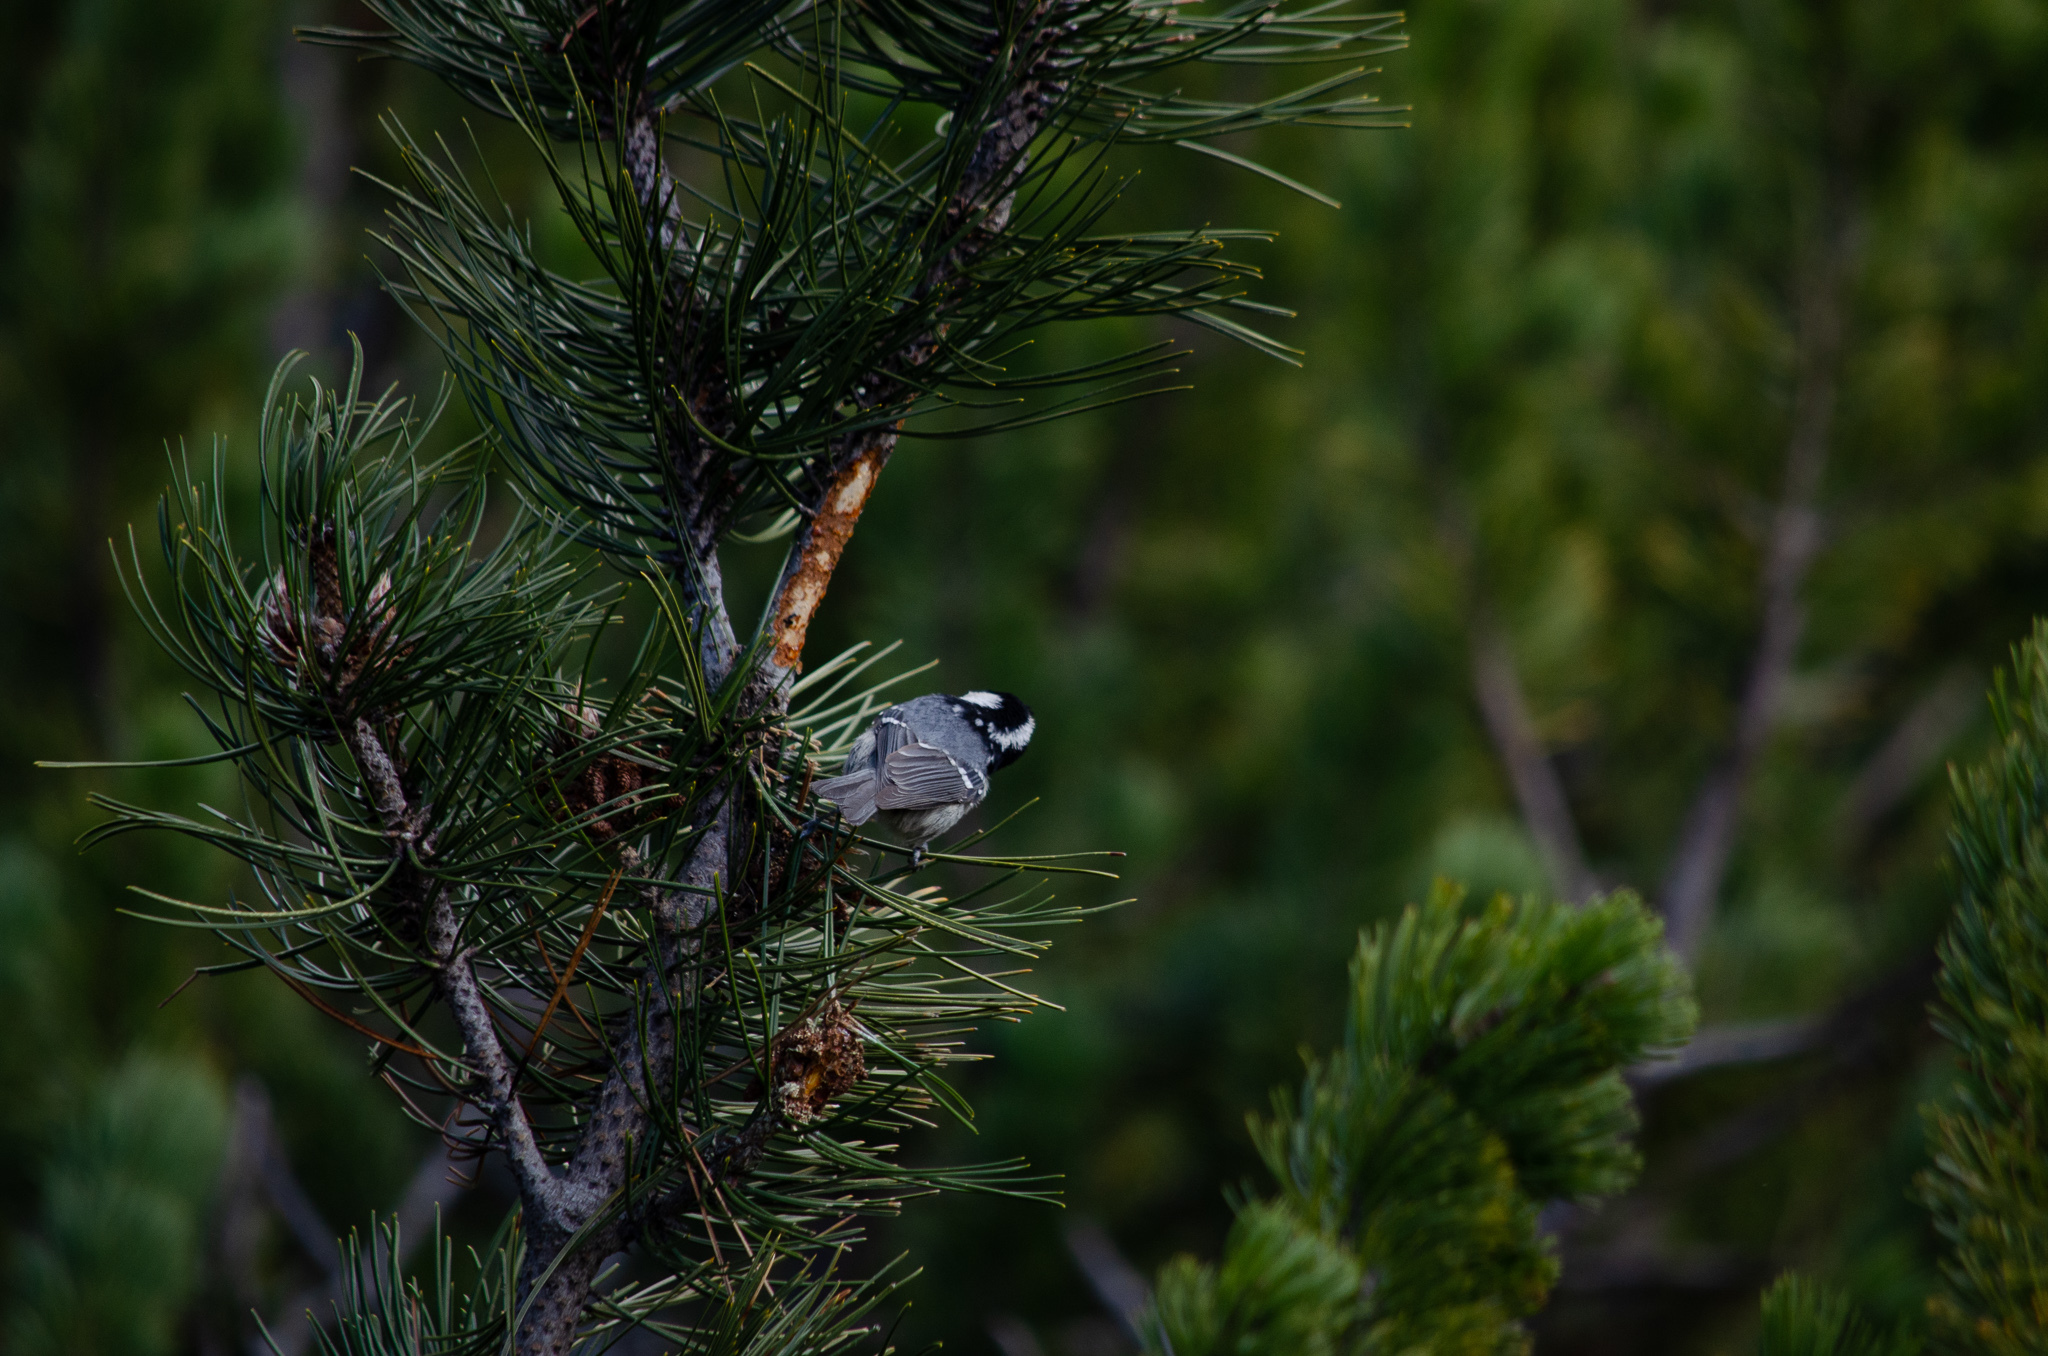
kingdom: Animalia
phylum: Chordata
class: Aves
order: Passeriformes
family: Paridae
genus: Periparus
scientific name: Periparus ater
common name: Coal tit
